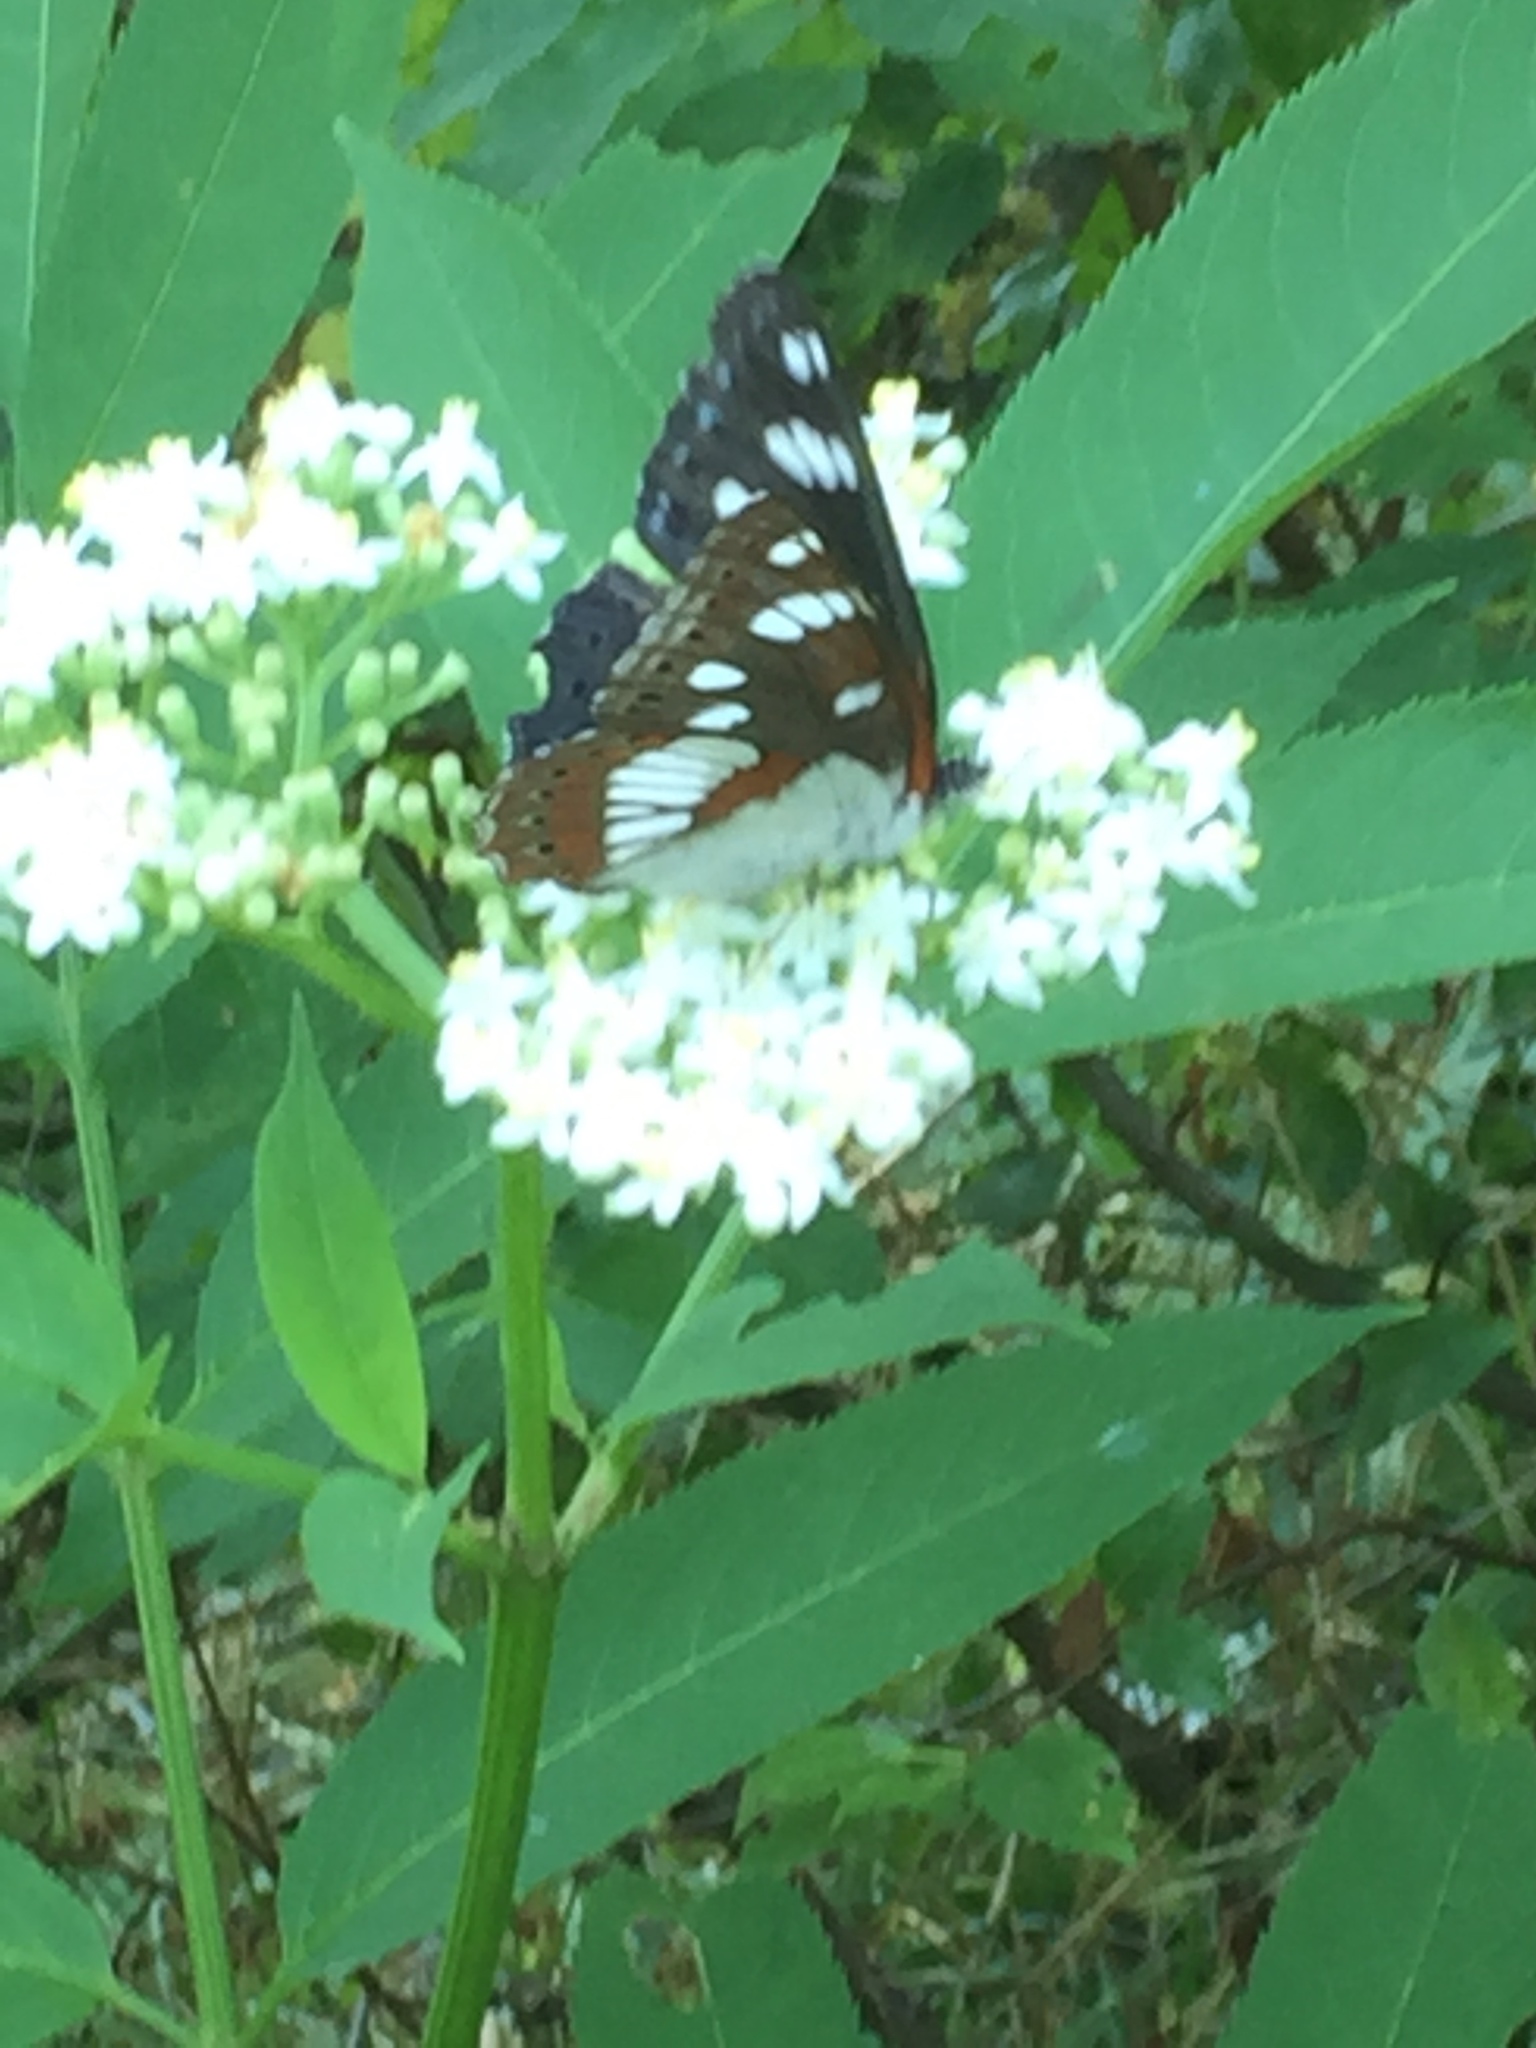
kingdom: Animalia
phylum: Arthropoda
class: Insecta
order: Lepidoptera
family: Nymphalidae
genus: Limenitis
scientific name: Limenitis reducta
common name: Southern white admiral
